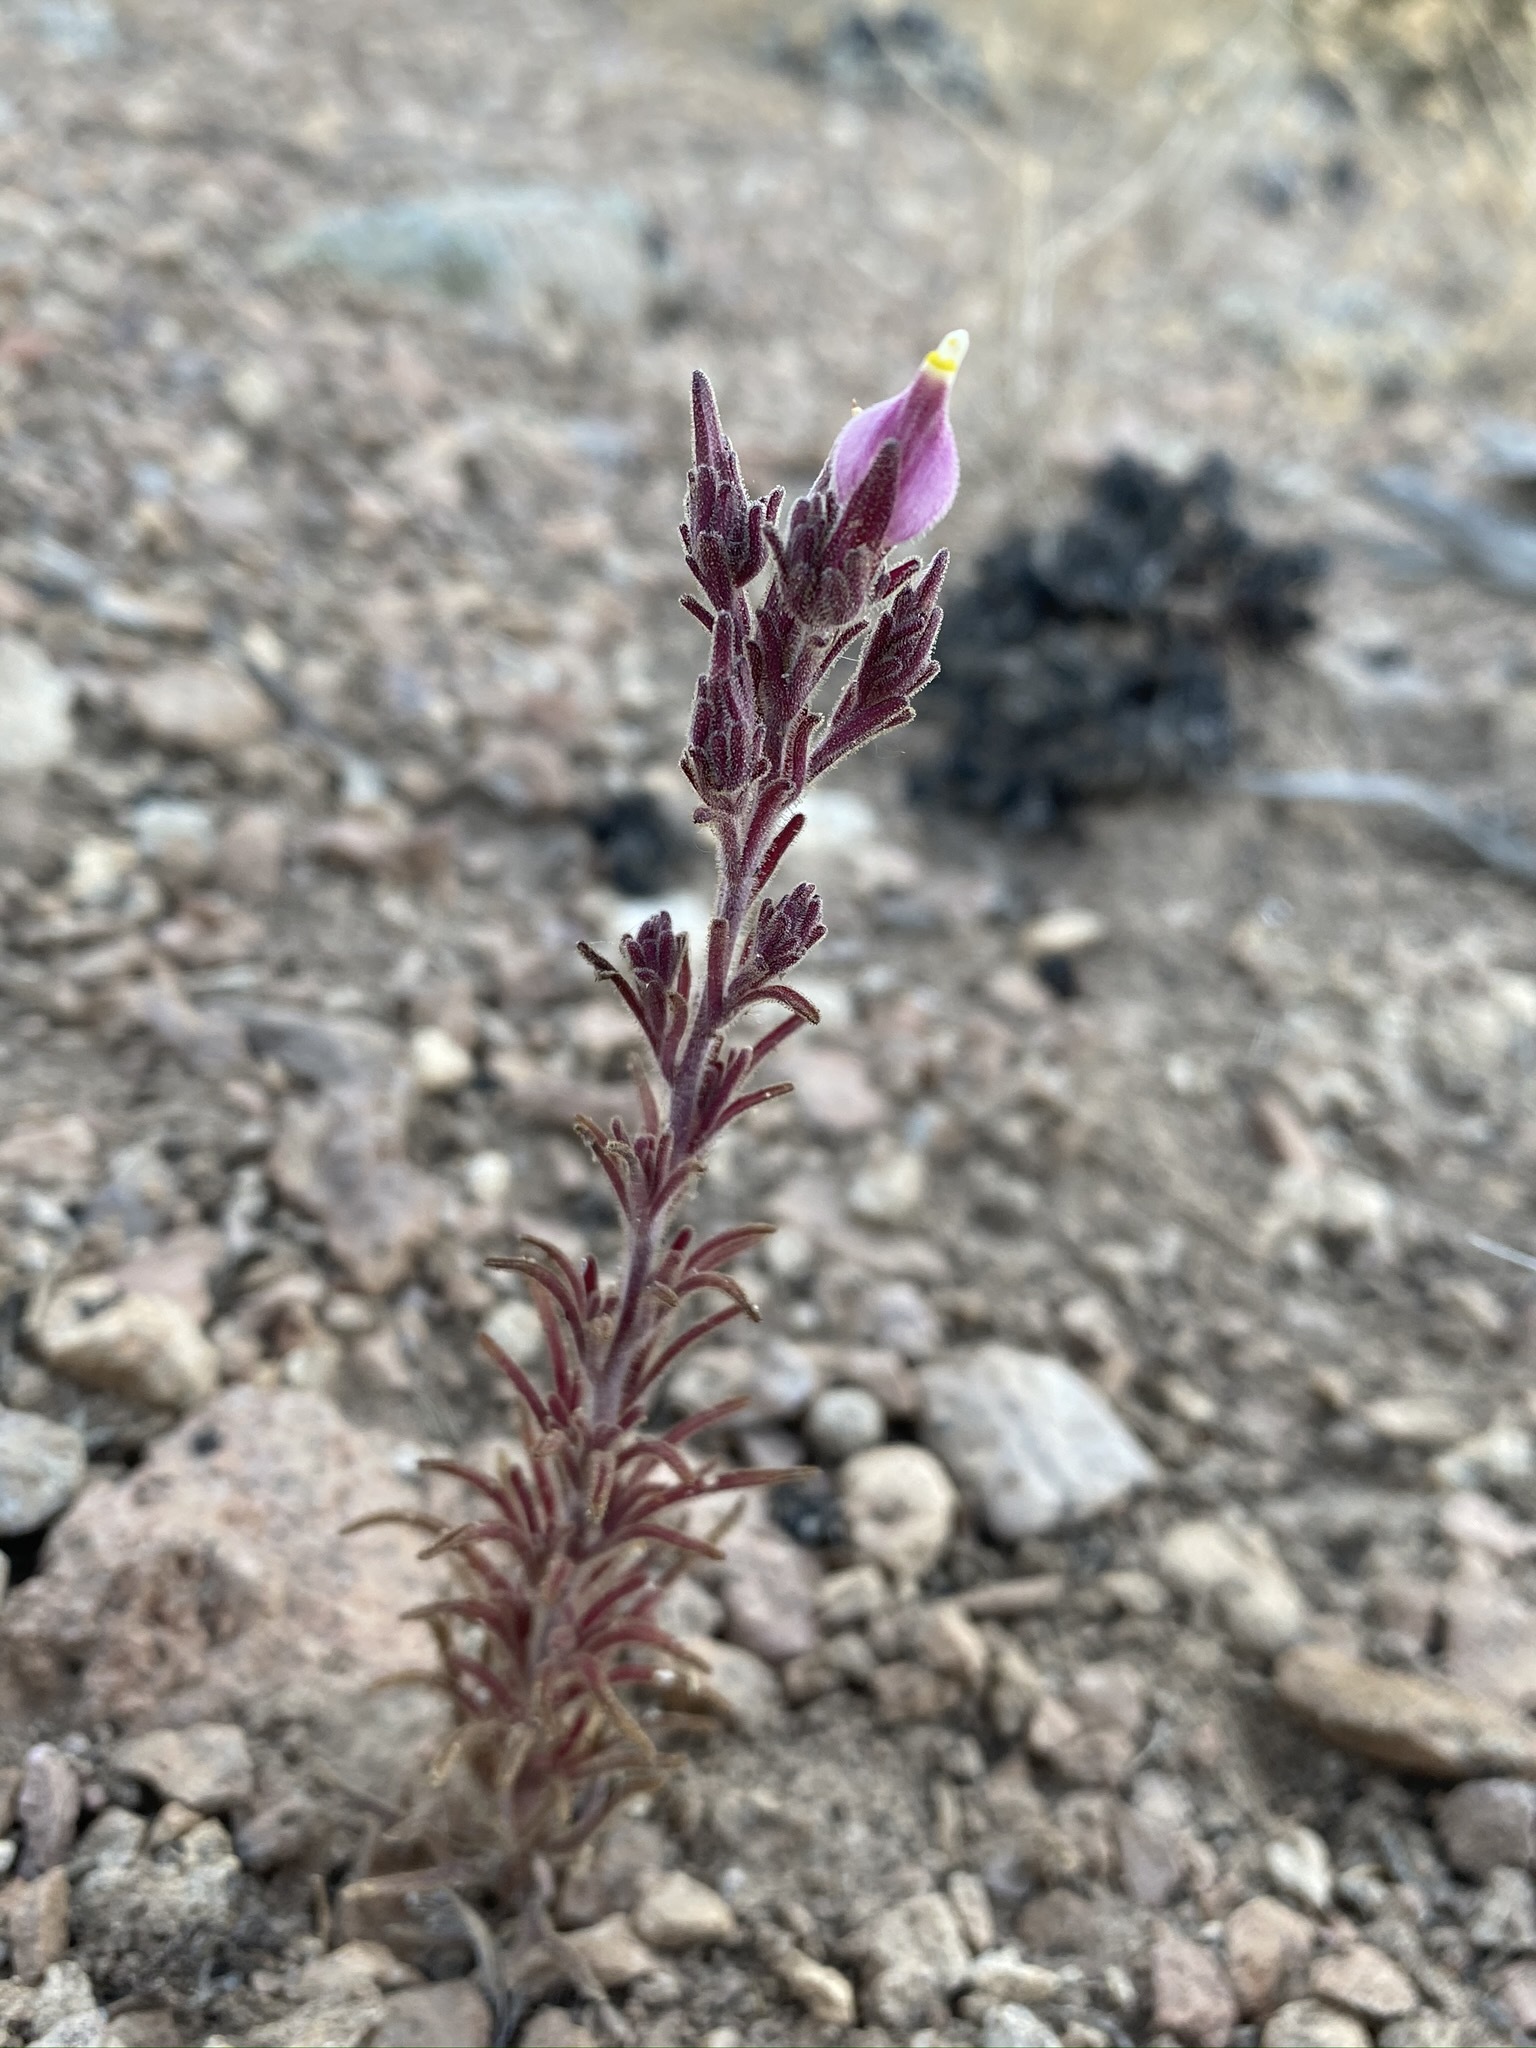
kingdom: Plantae
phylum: Tracheophyta
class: Magnoliopsida
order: Lamiales
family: Orobanchaceae
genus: Cordylanthus
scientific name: Cordylanthus parviflorus
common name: Purple bird's-beak
